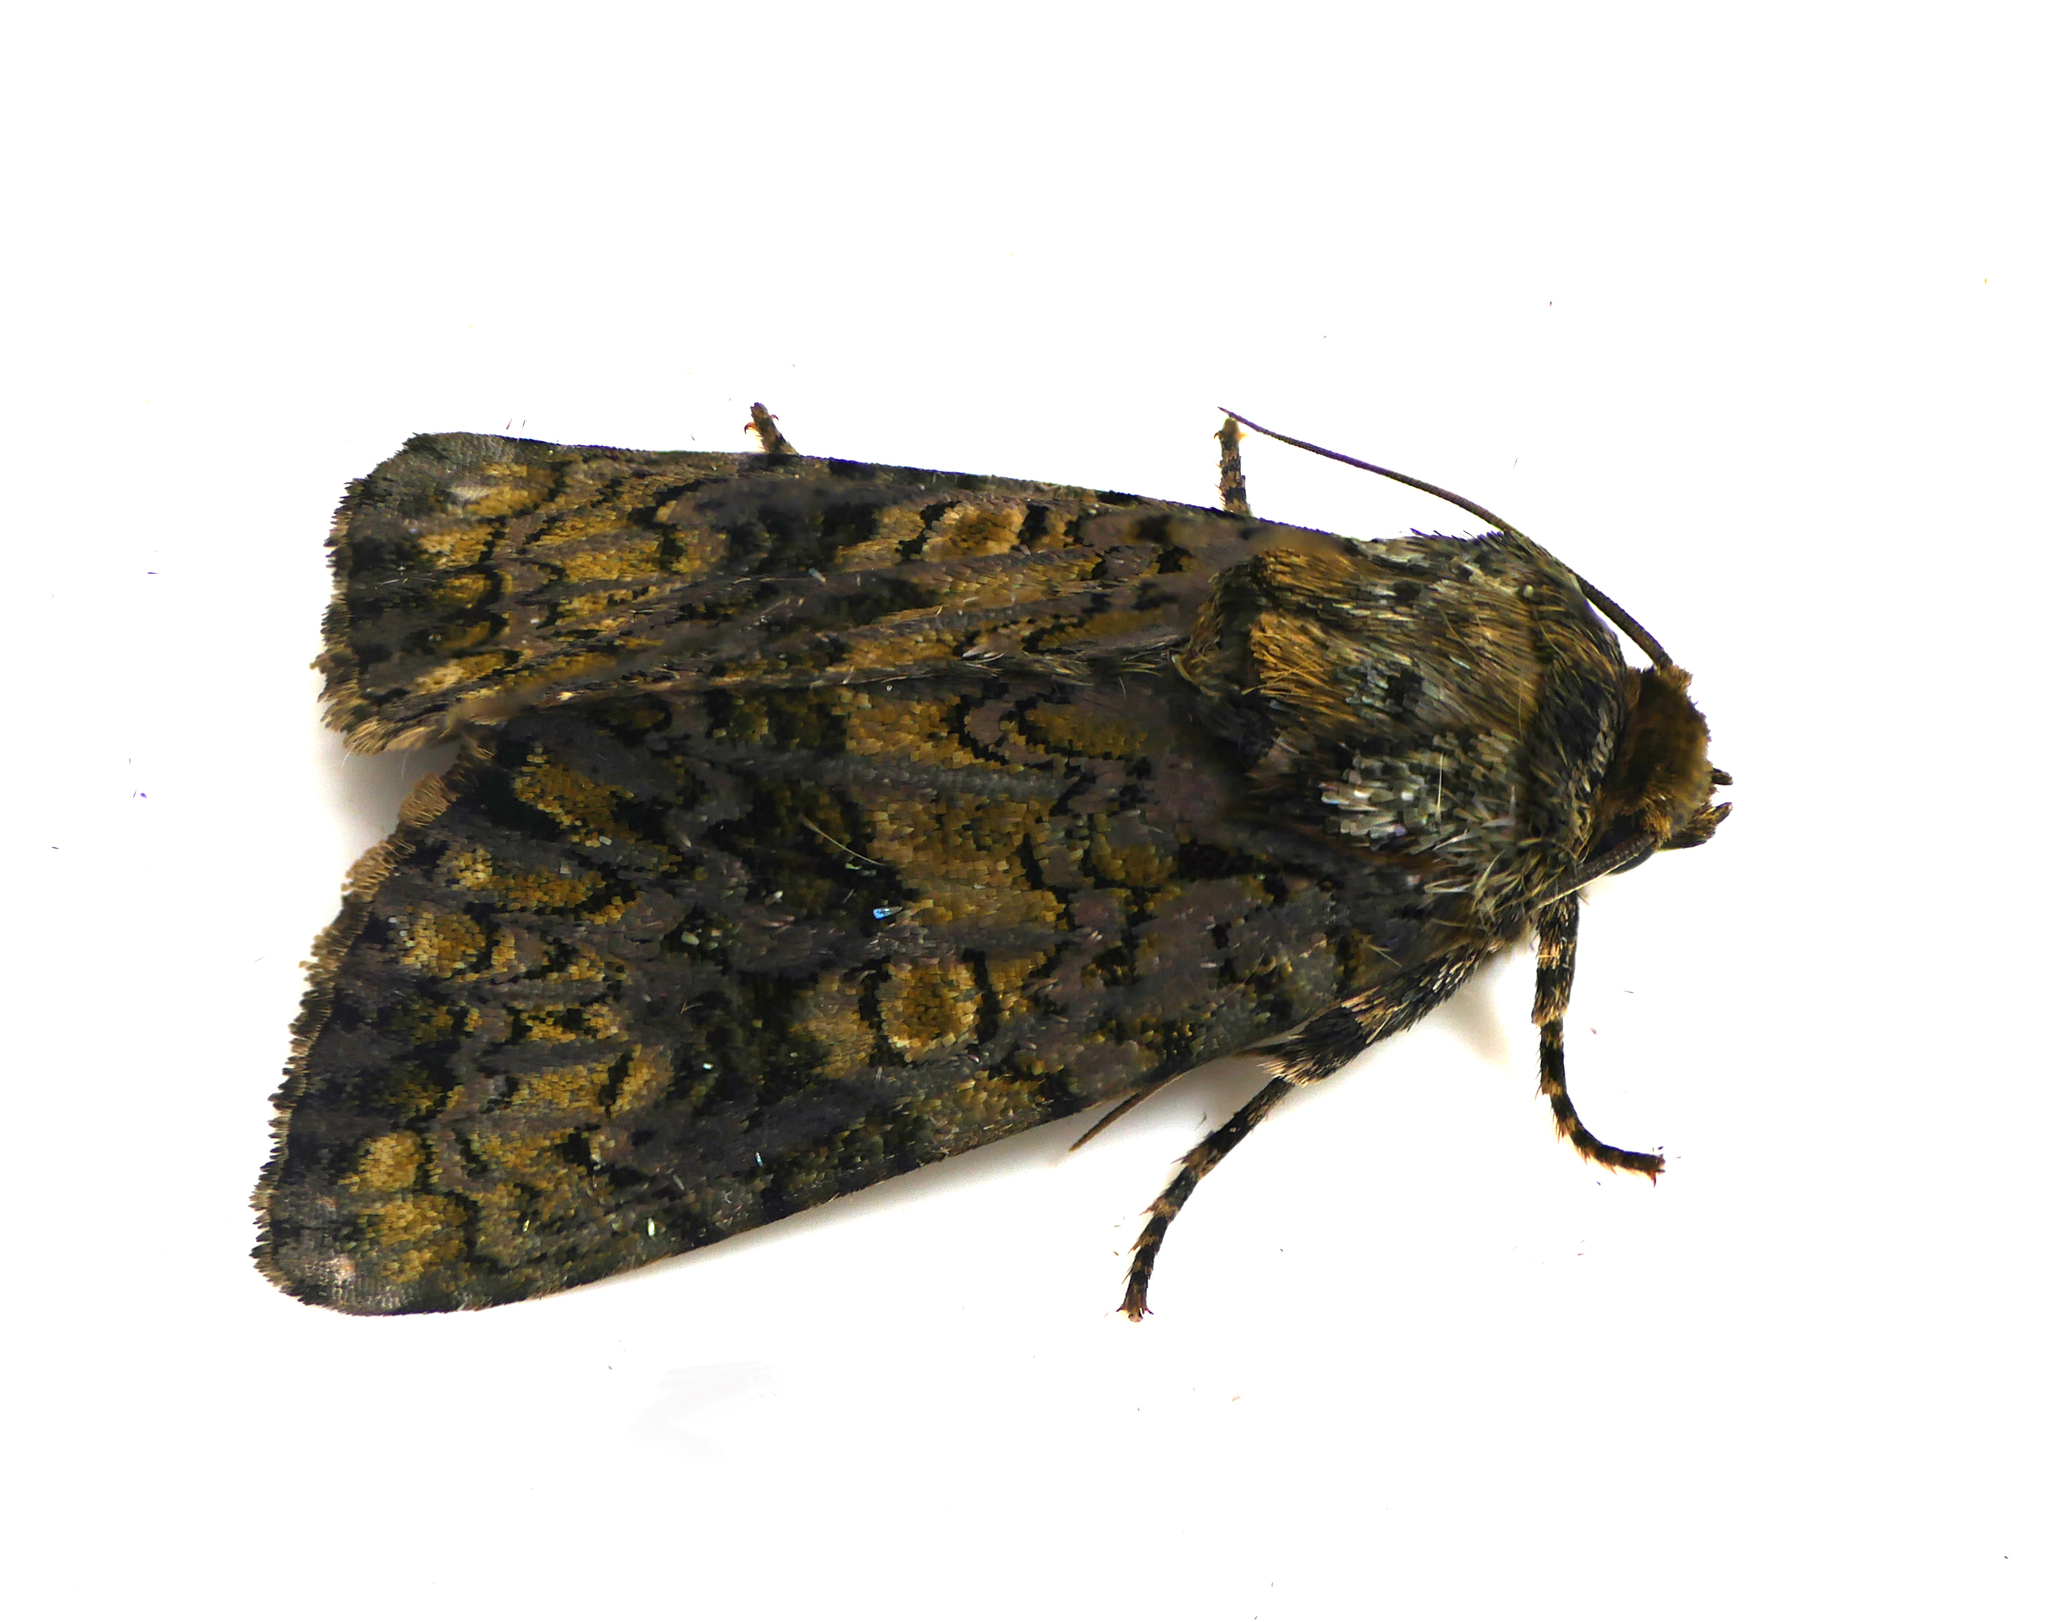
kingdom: Animalia
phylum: Arthropoda
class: Insecta
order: Lepidoptera
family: Noctuidae
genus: Craniophora
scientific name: Craniophora ligustri
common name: Coronet
